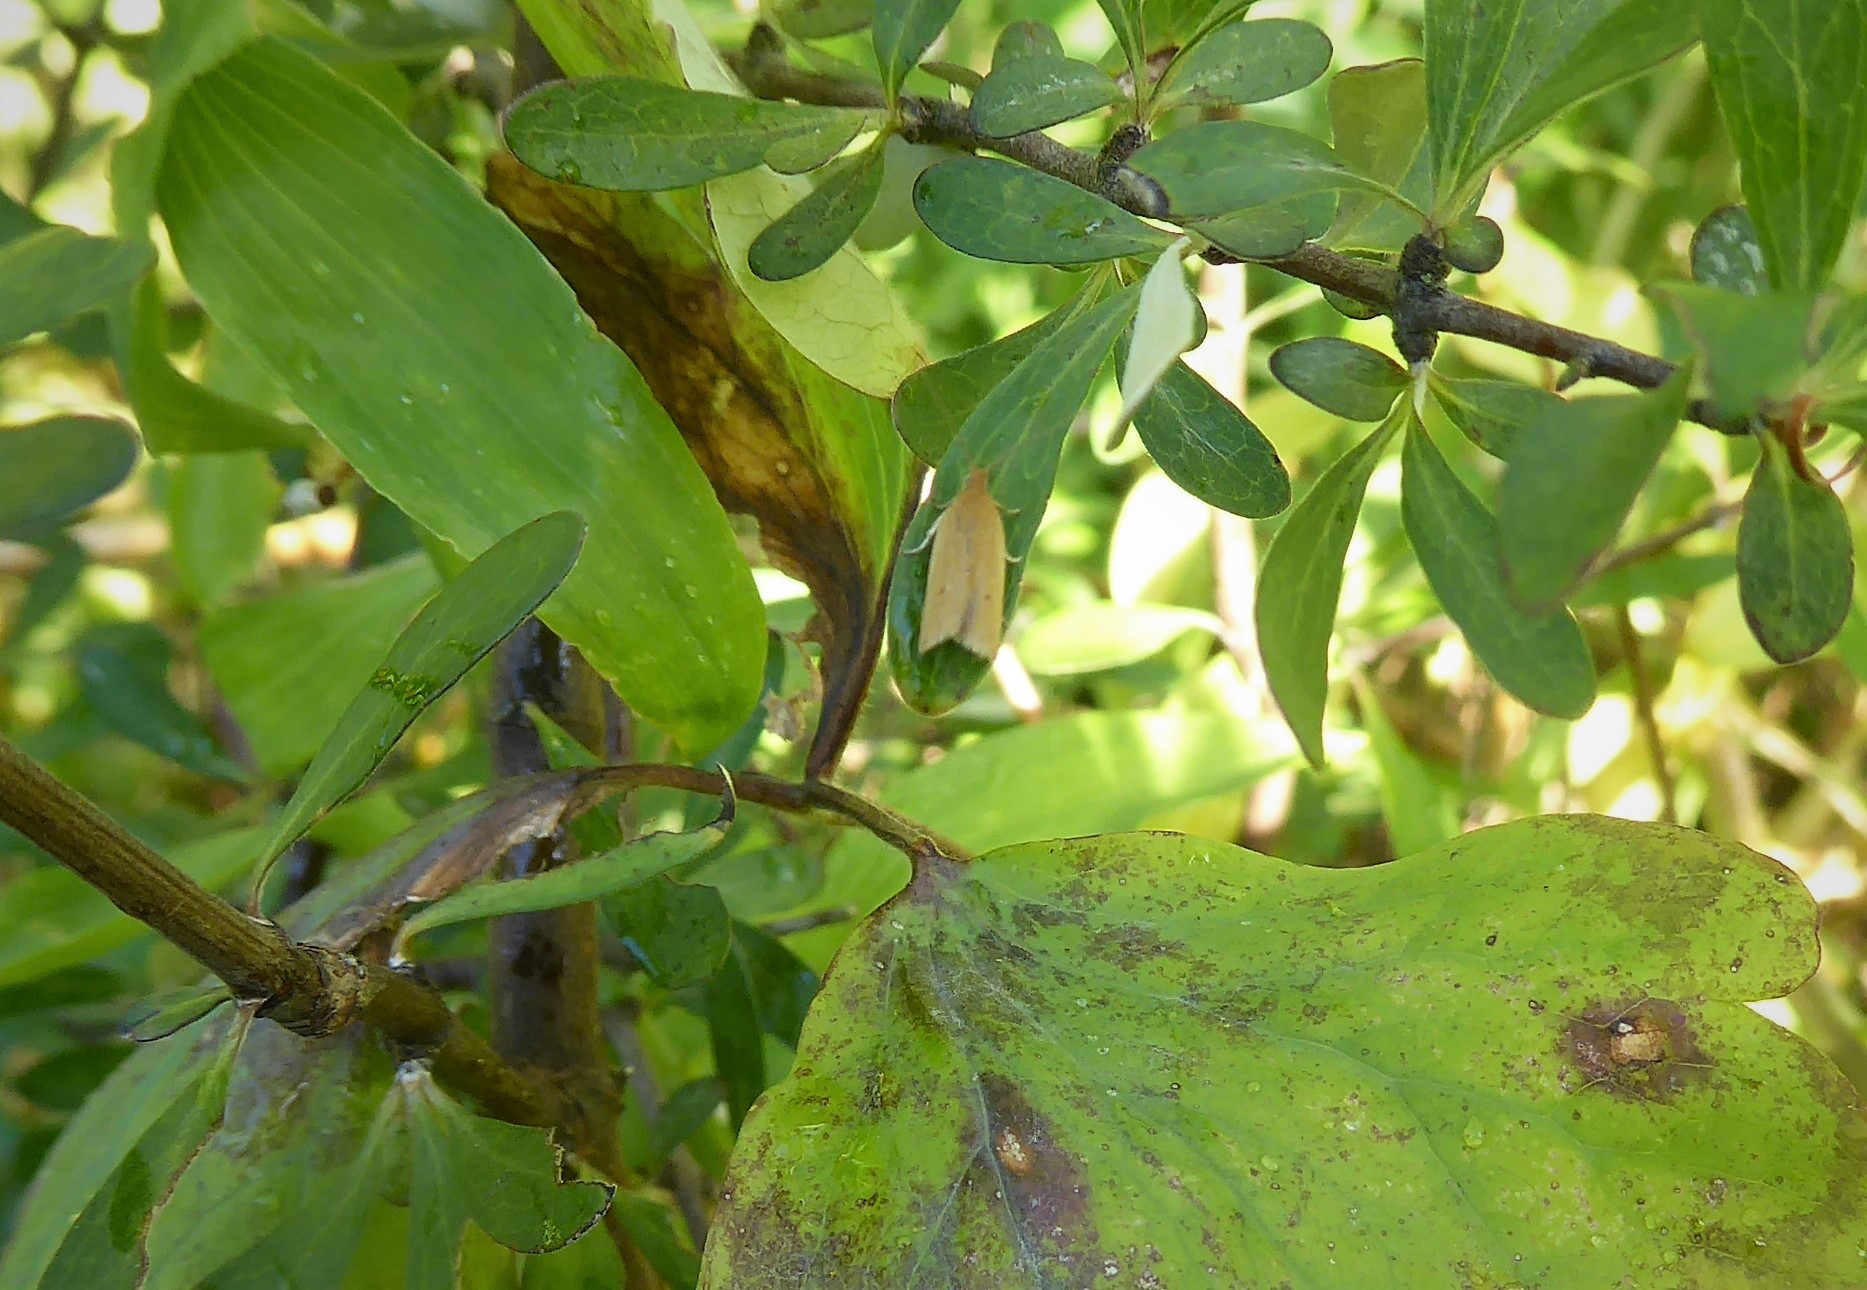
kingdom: Animalia
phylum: Arthropoda
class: Insecta
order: Lepidoptera
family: Tortricidae
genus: Epichorista
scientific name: Epichorista siriana
